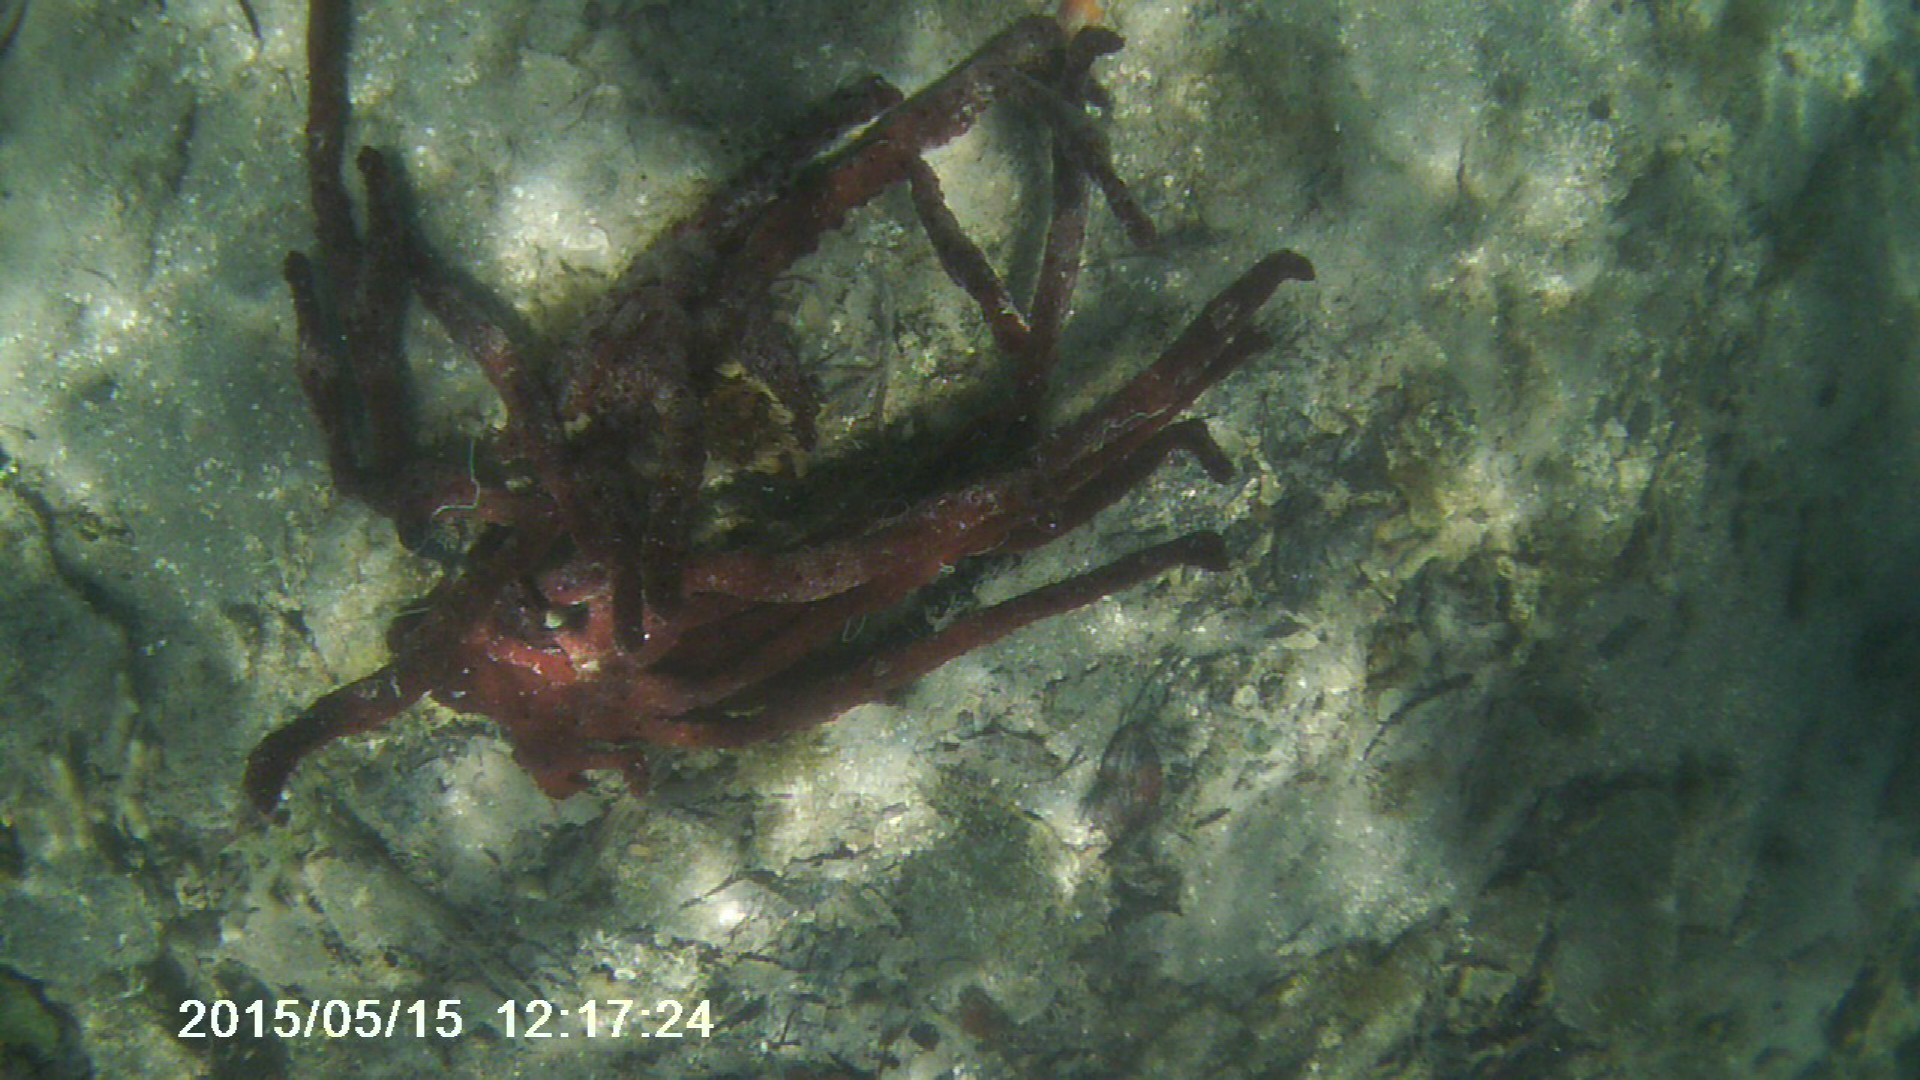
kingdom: Animalia
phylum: Porifera
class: Demospongiae
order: Haplosclerida
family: Niphatidae
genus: Amphimedon
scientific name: Amphimedon compressa
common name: Red sponge
